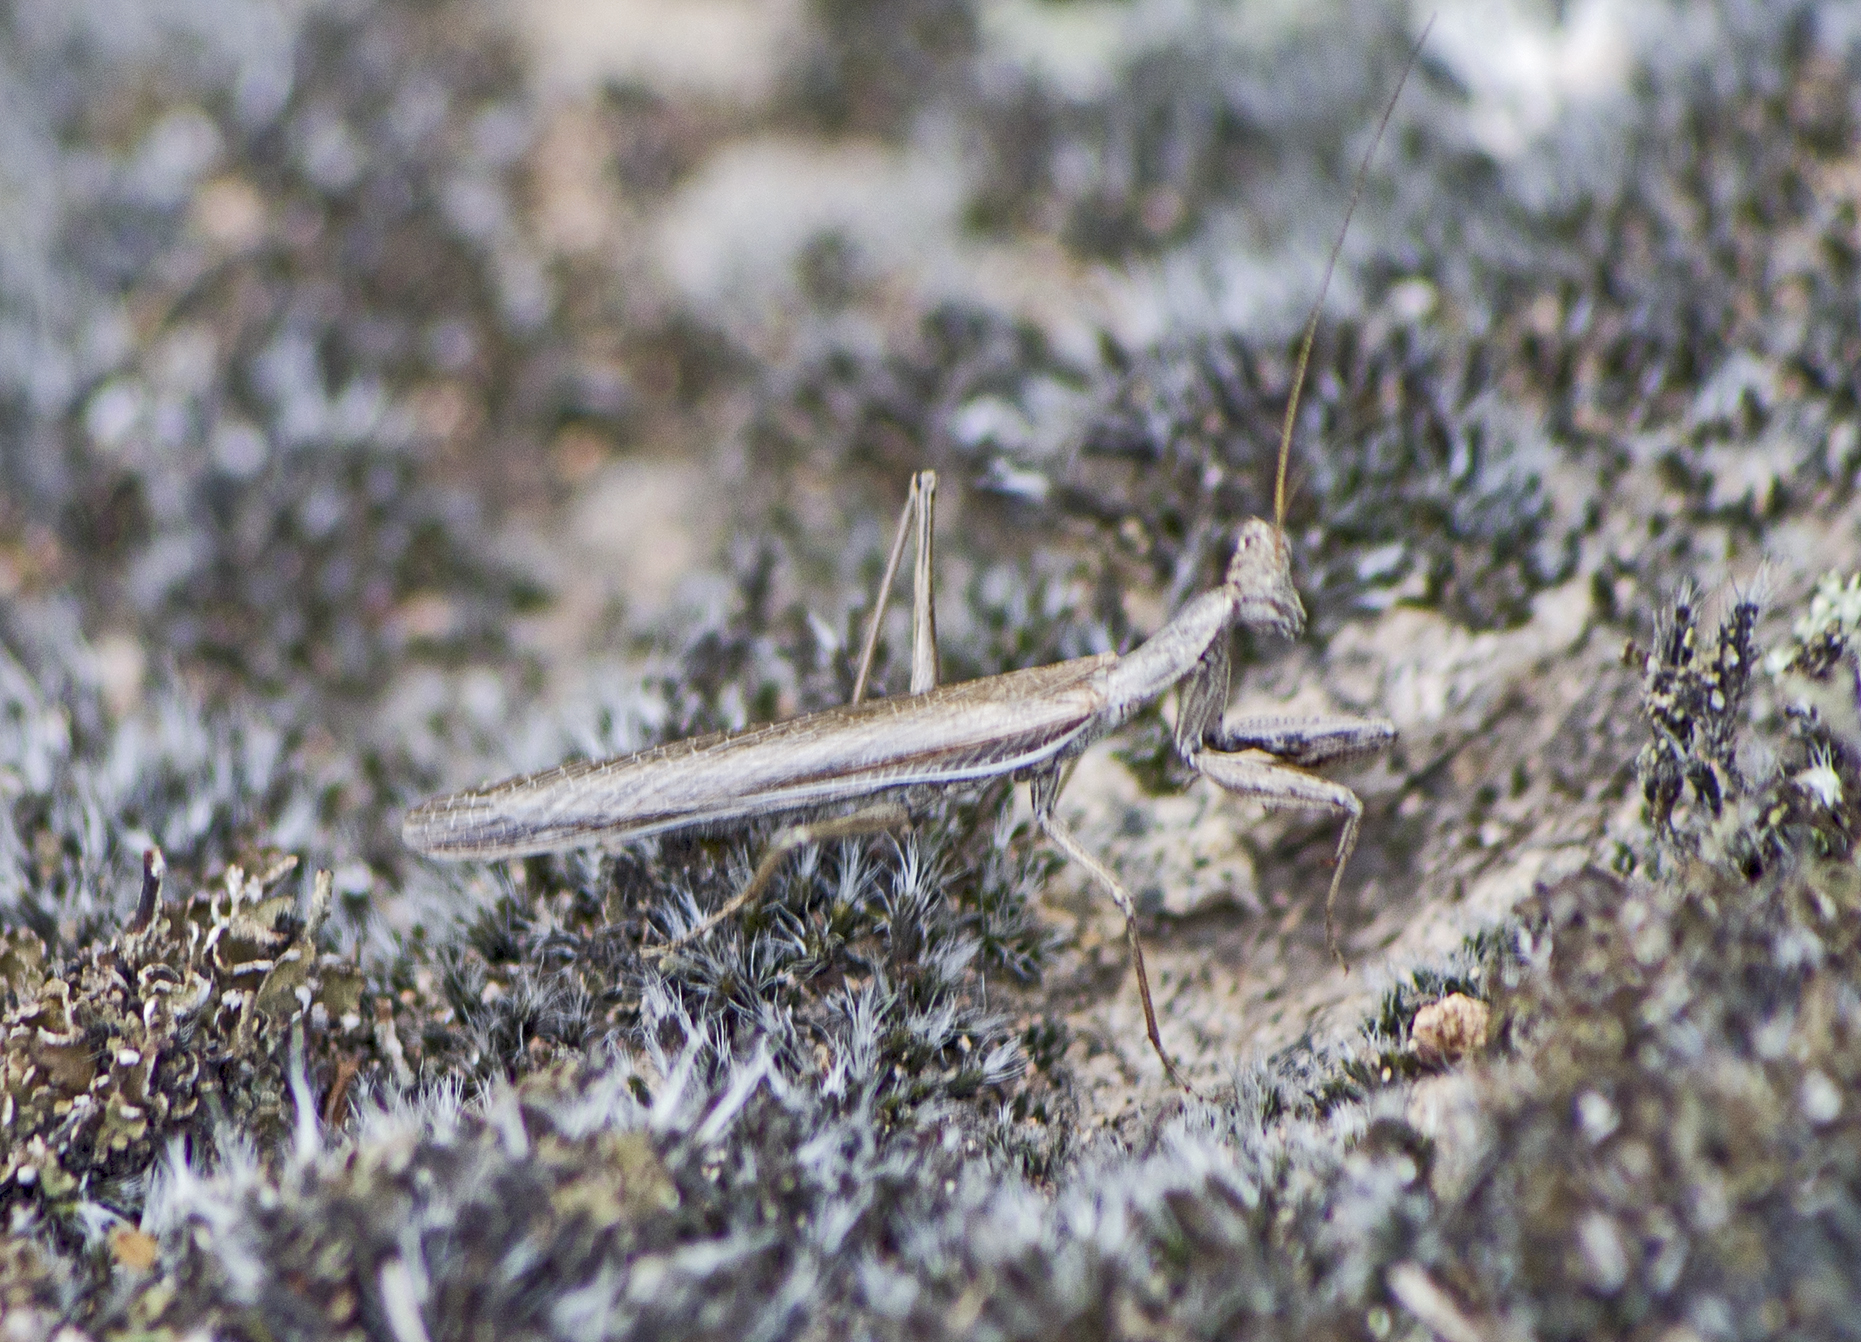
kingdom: Animalia
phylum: Arthropoda
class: Insecta
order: Mantodea
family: Amelidae
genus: Ameles
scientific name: Ameles heldreichi
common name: Heldreich's dwarf mantis
